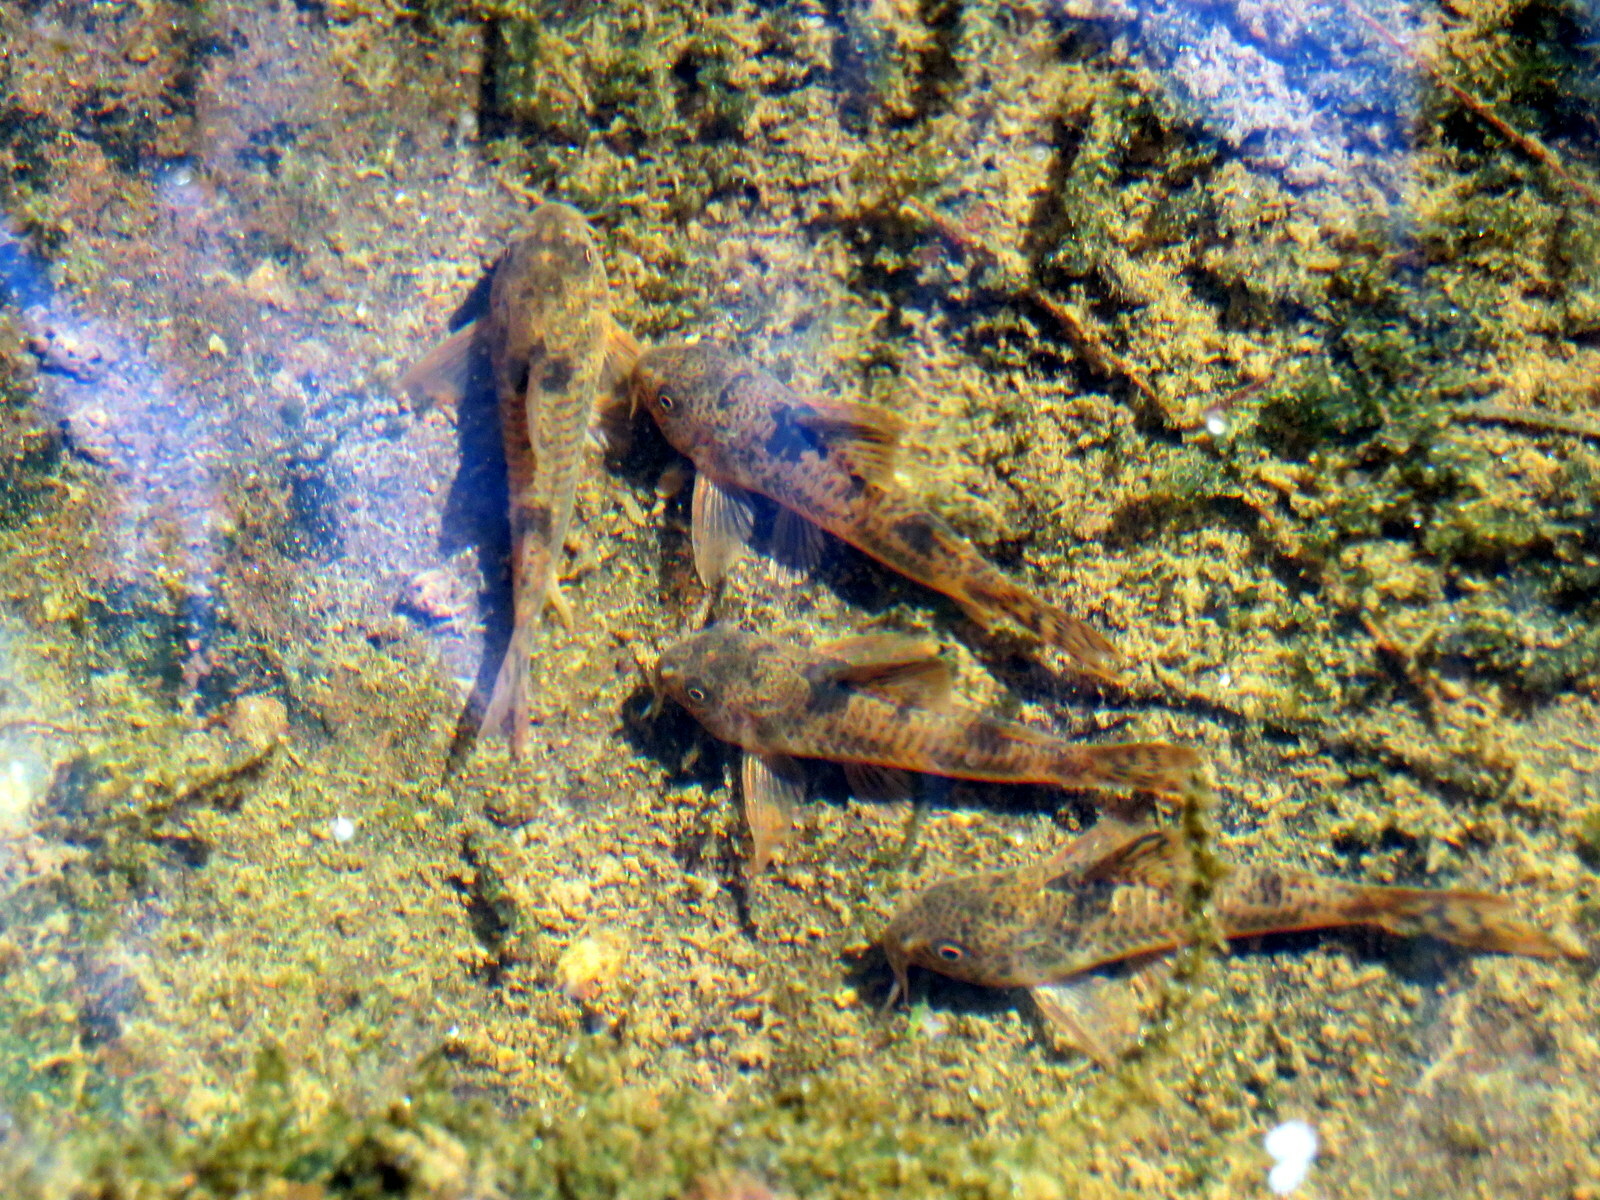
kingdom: Animalia
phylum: Chordata
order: Siluriformes
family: Callichthyidae
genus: Corydoras
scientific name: Corydoras carlae
